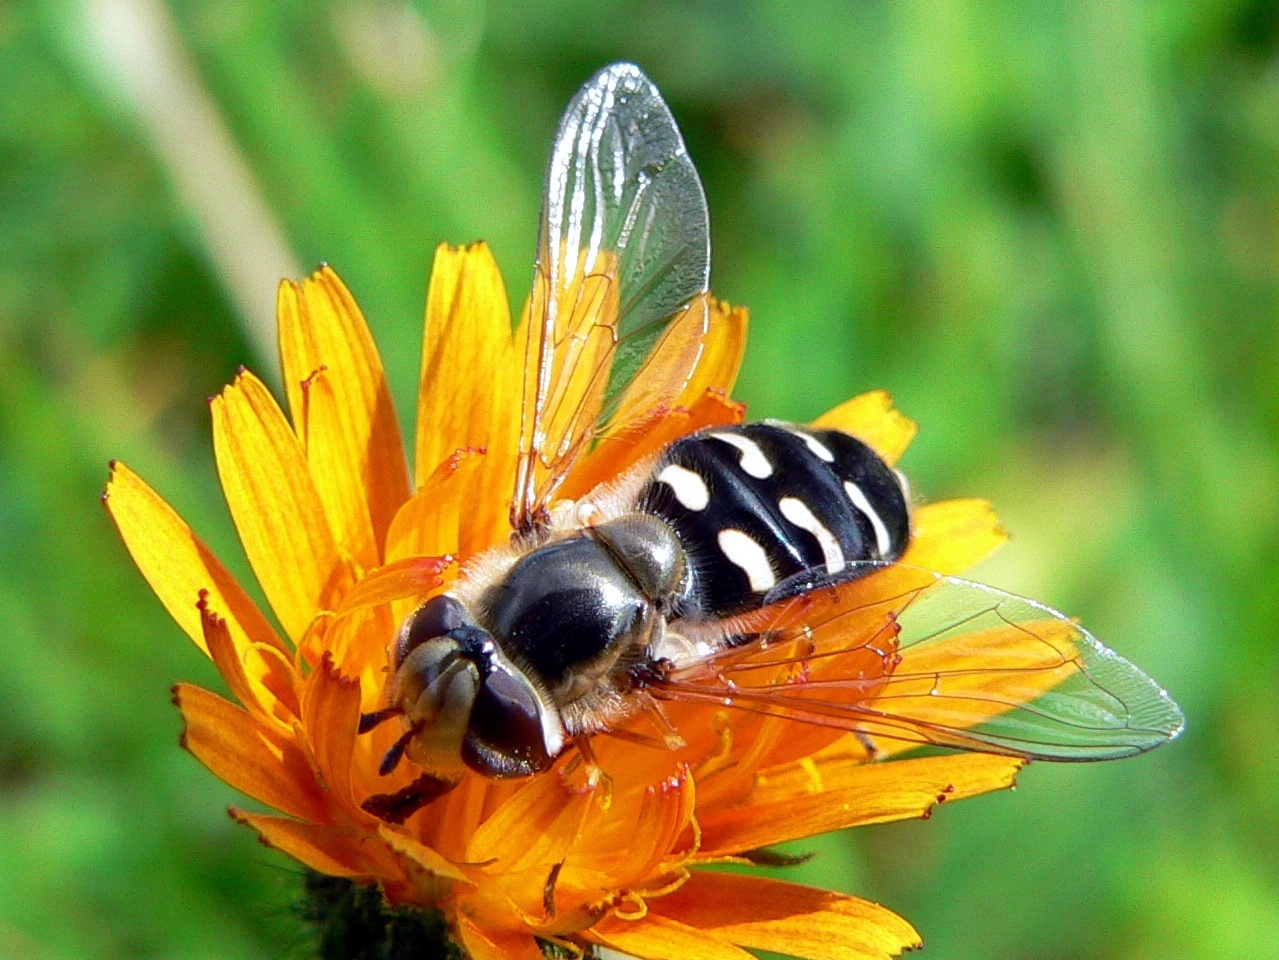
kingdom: Animalia
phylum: Arthropoda
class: Insecta
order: Diptera
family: Syrphidae
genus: Scaeva
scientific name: Scaeva pyrastri
